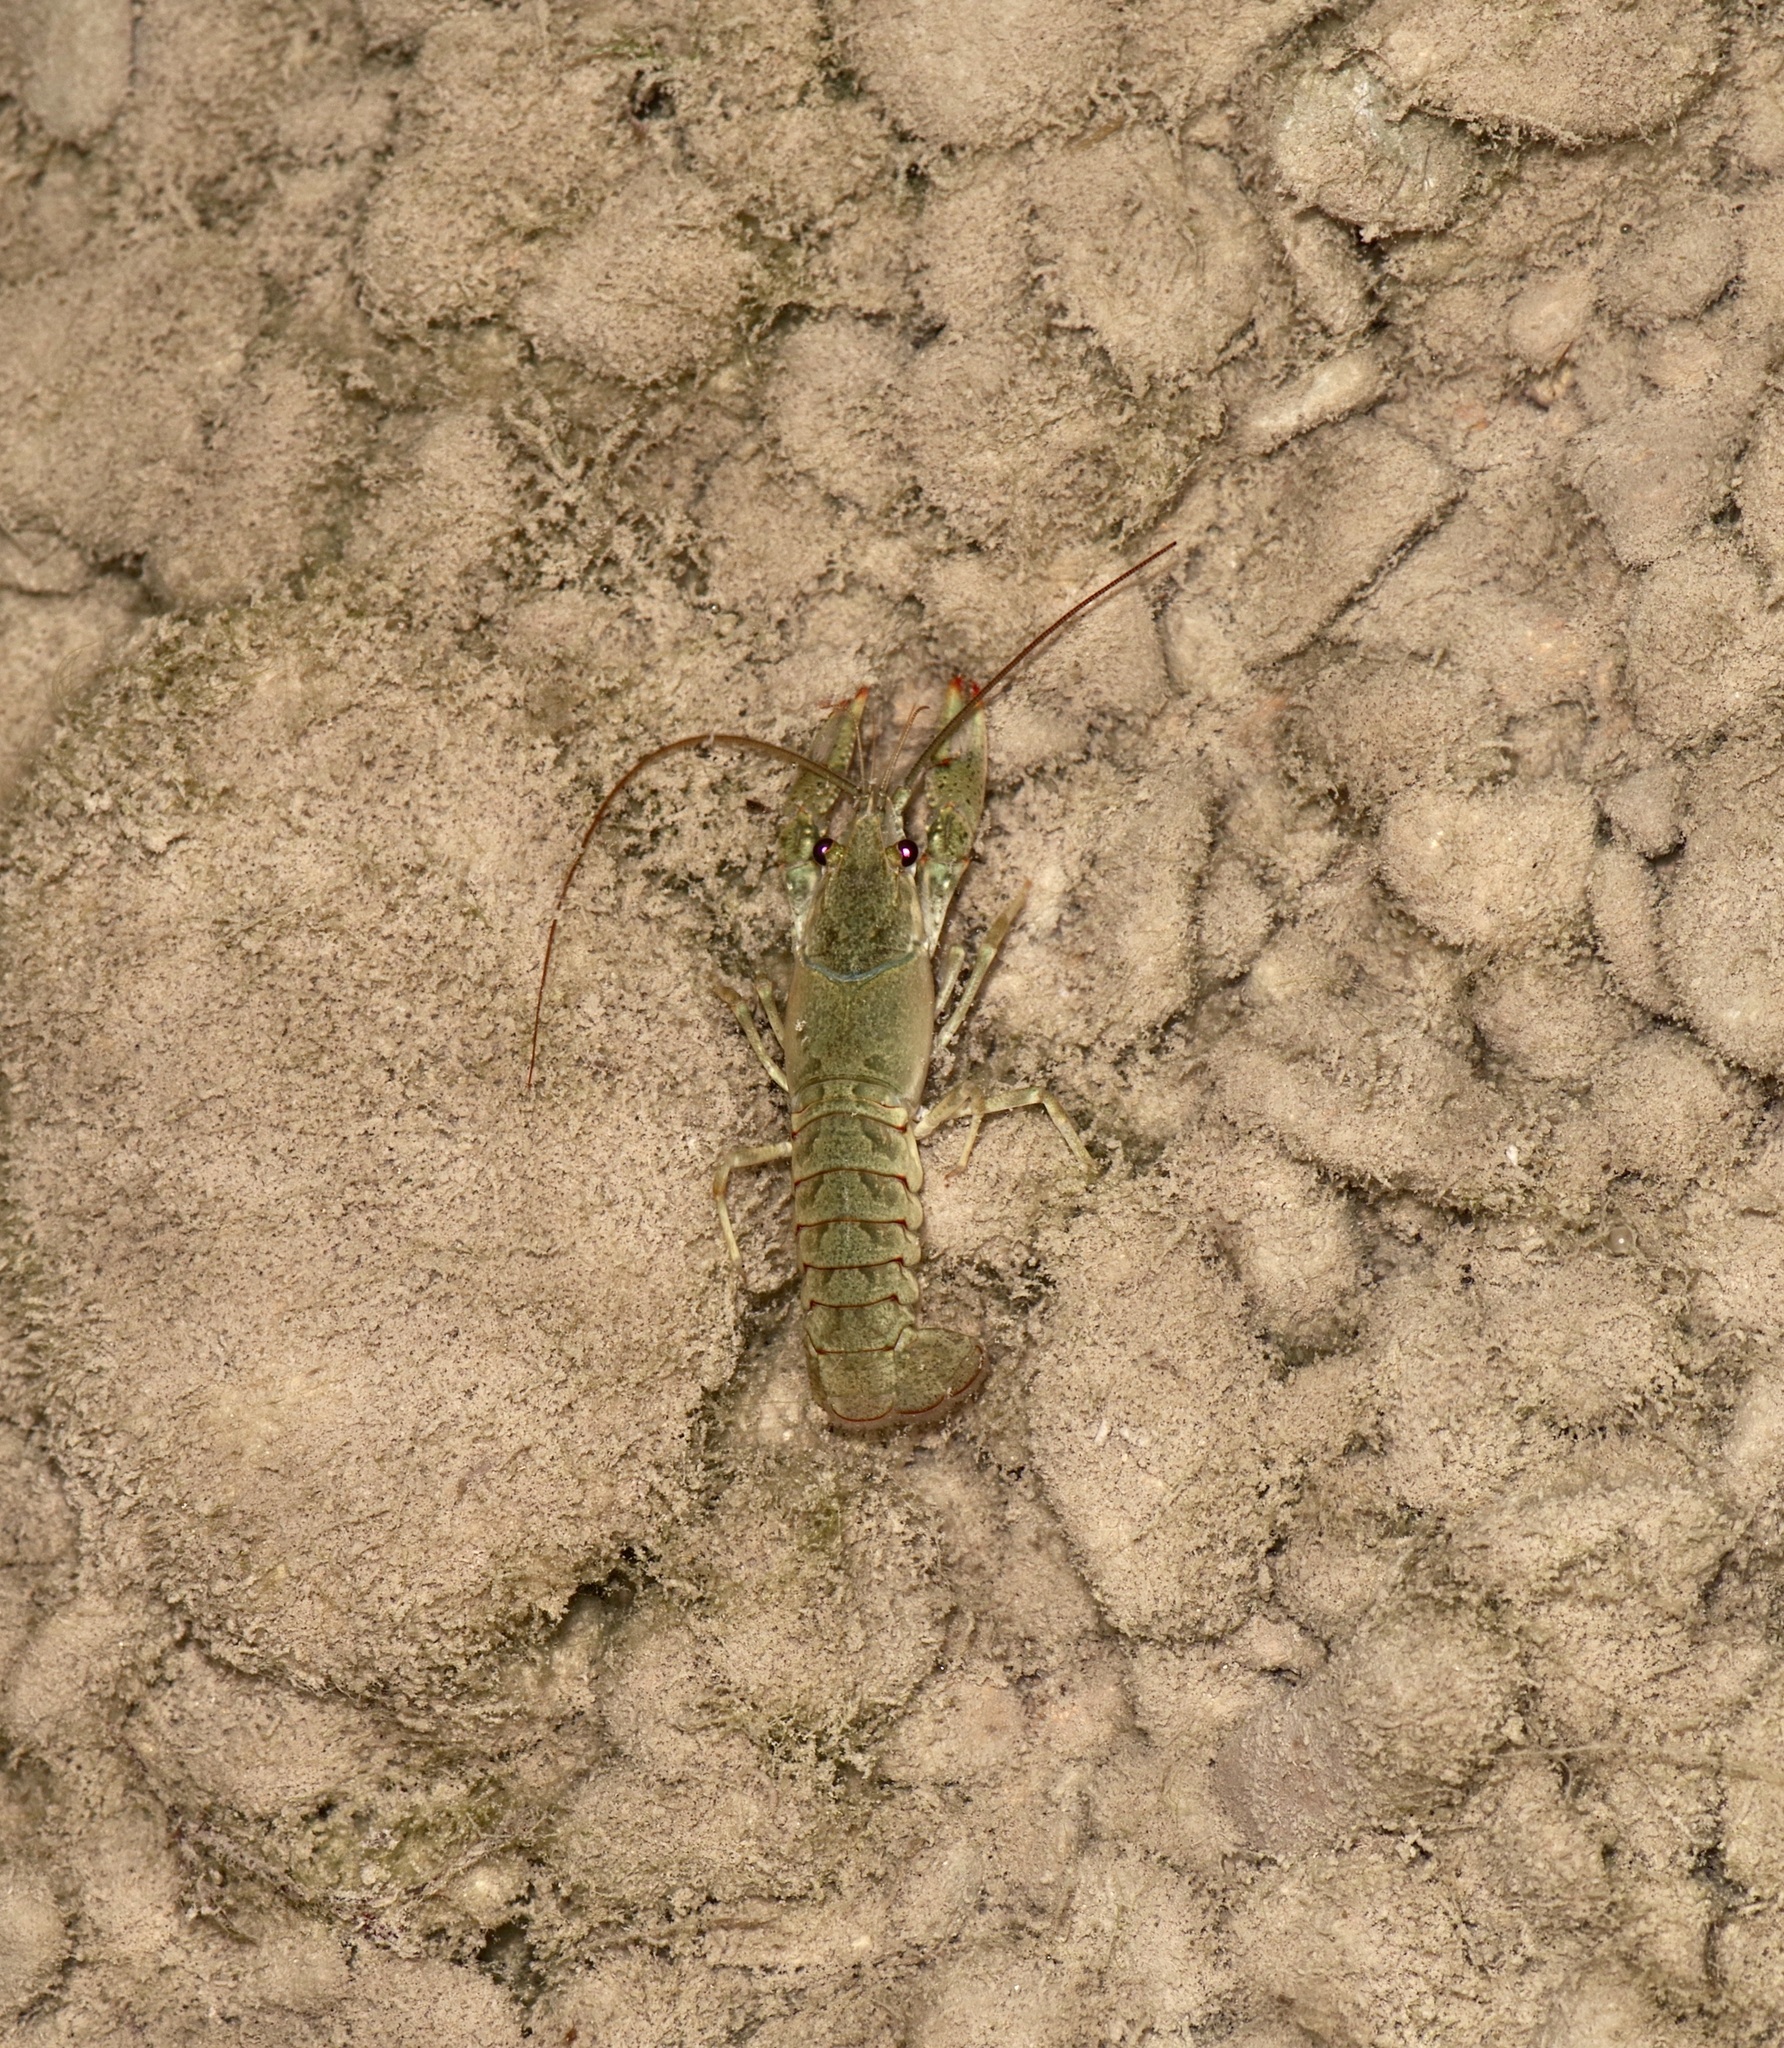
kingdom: Animalia
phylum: Arthropoda
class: Malacostraca
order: Decapoda
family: Cambaridae
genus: Faxonius
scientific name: Faxonius virilis
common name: Virile crayfish
